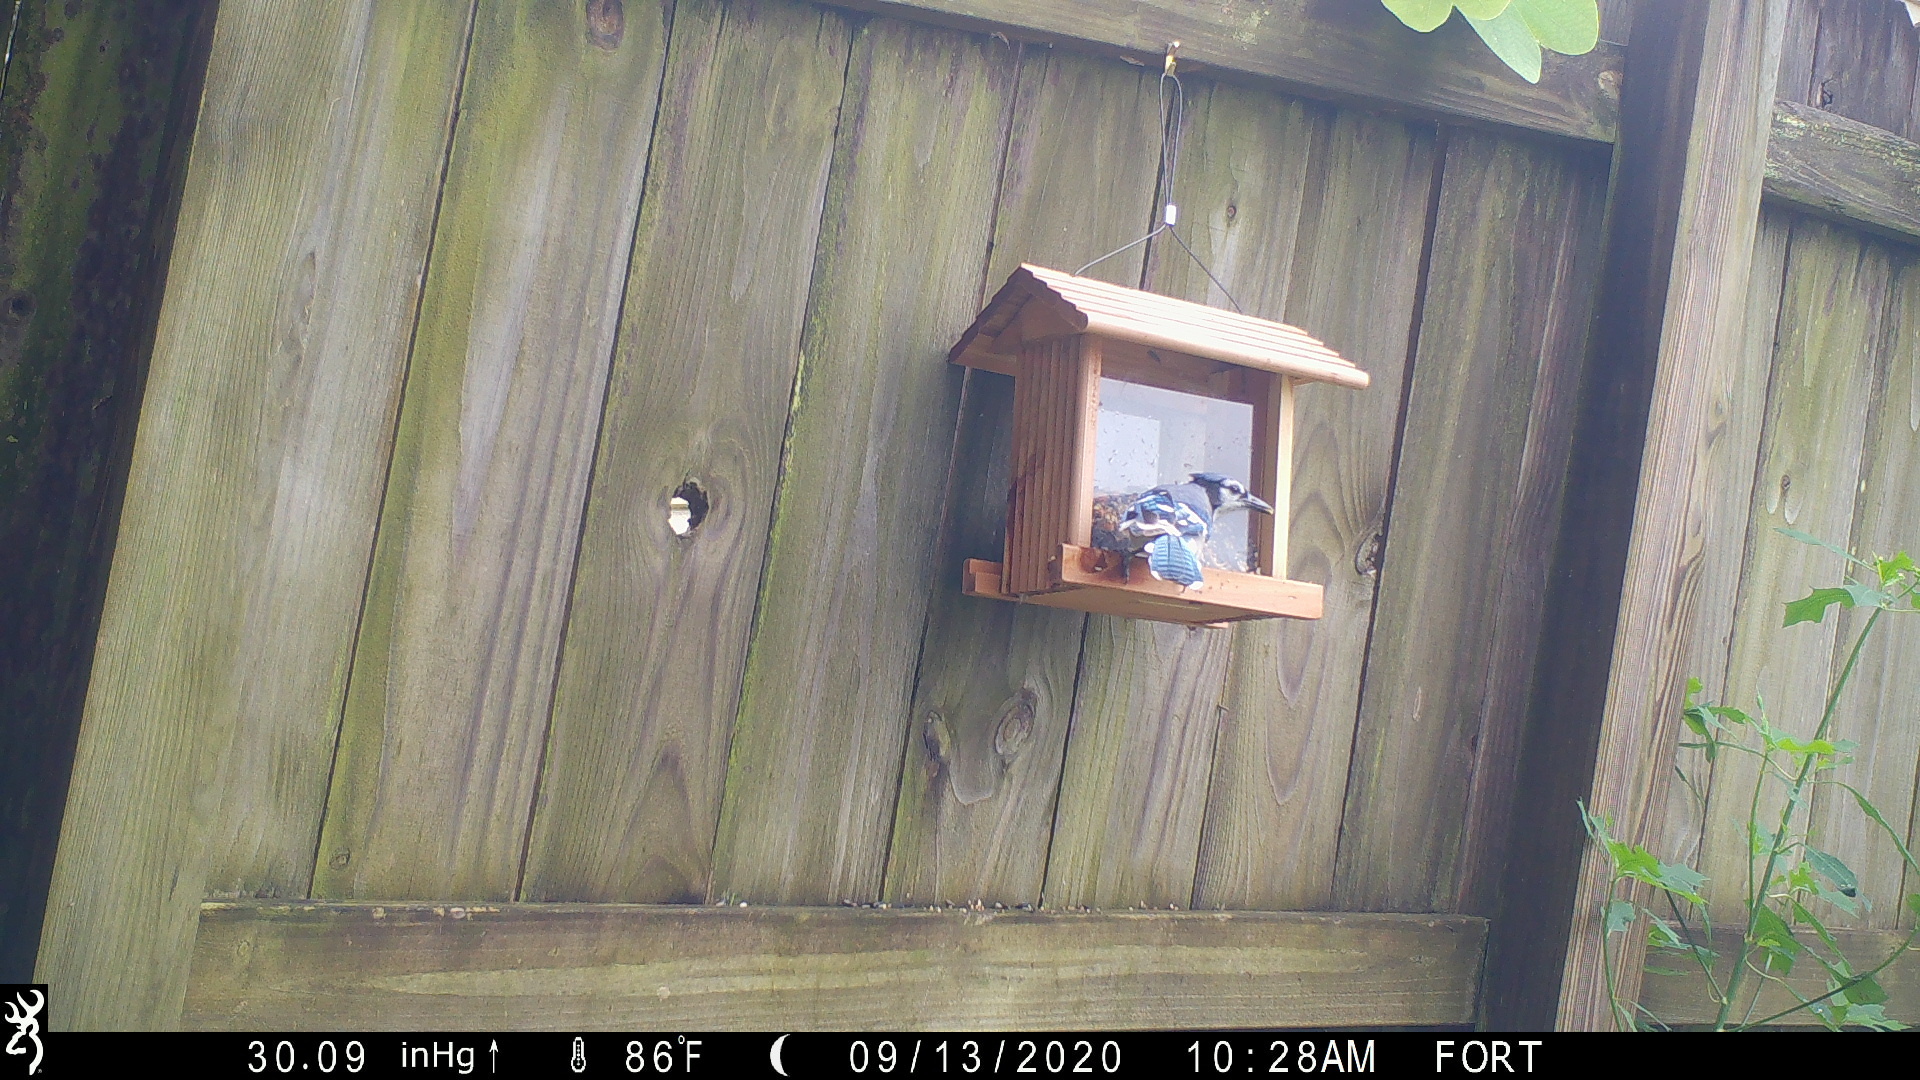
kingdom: Animalia
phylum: Chordata
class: Aves
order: Passeriformes
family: Corvidae
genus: Cyanocitta
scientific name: Cyanocitta cristata
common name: Blue jay
